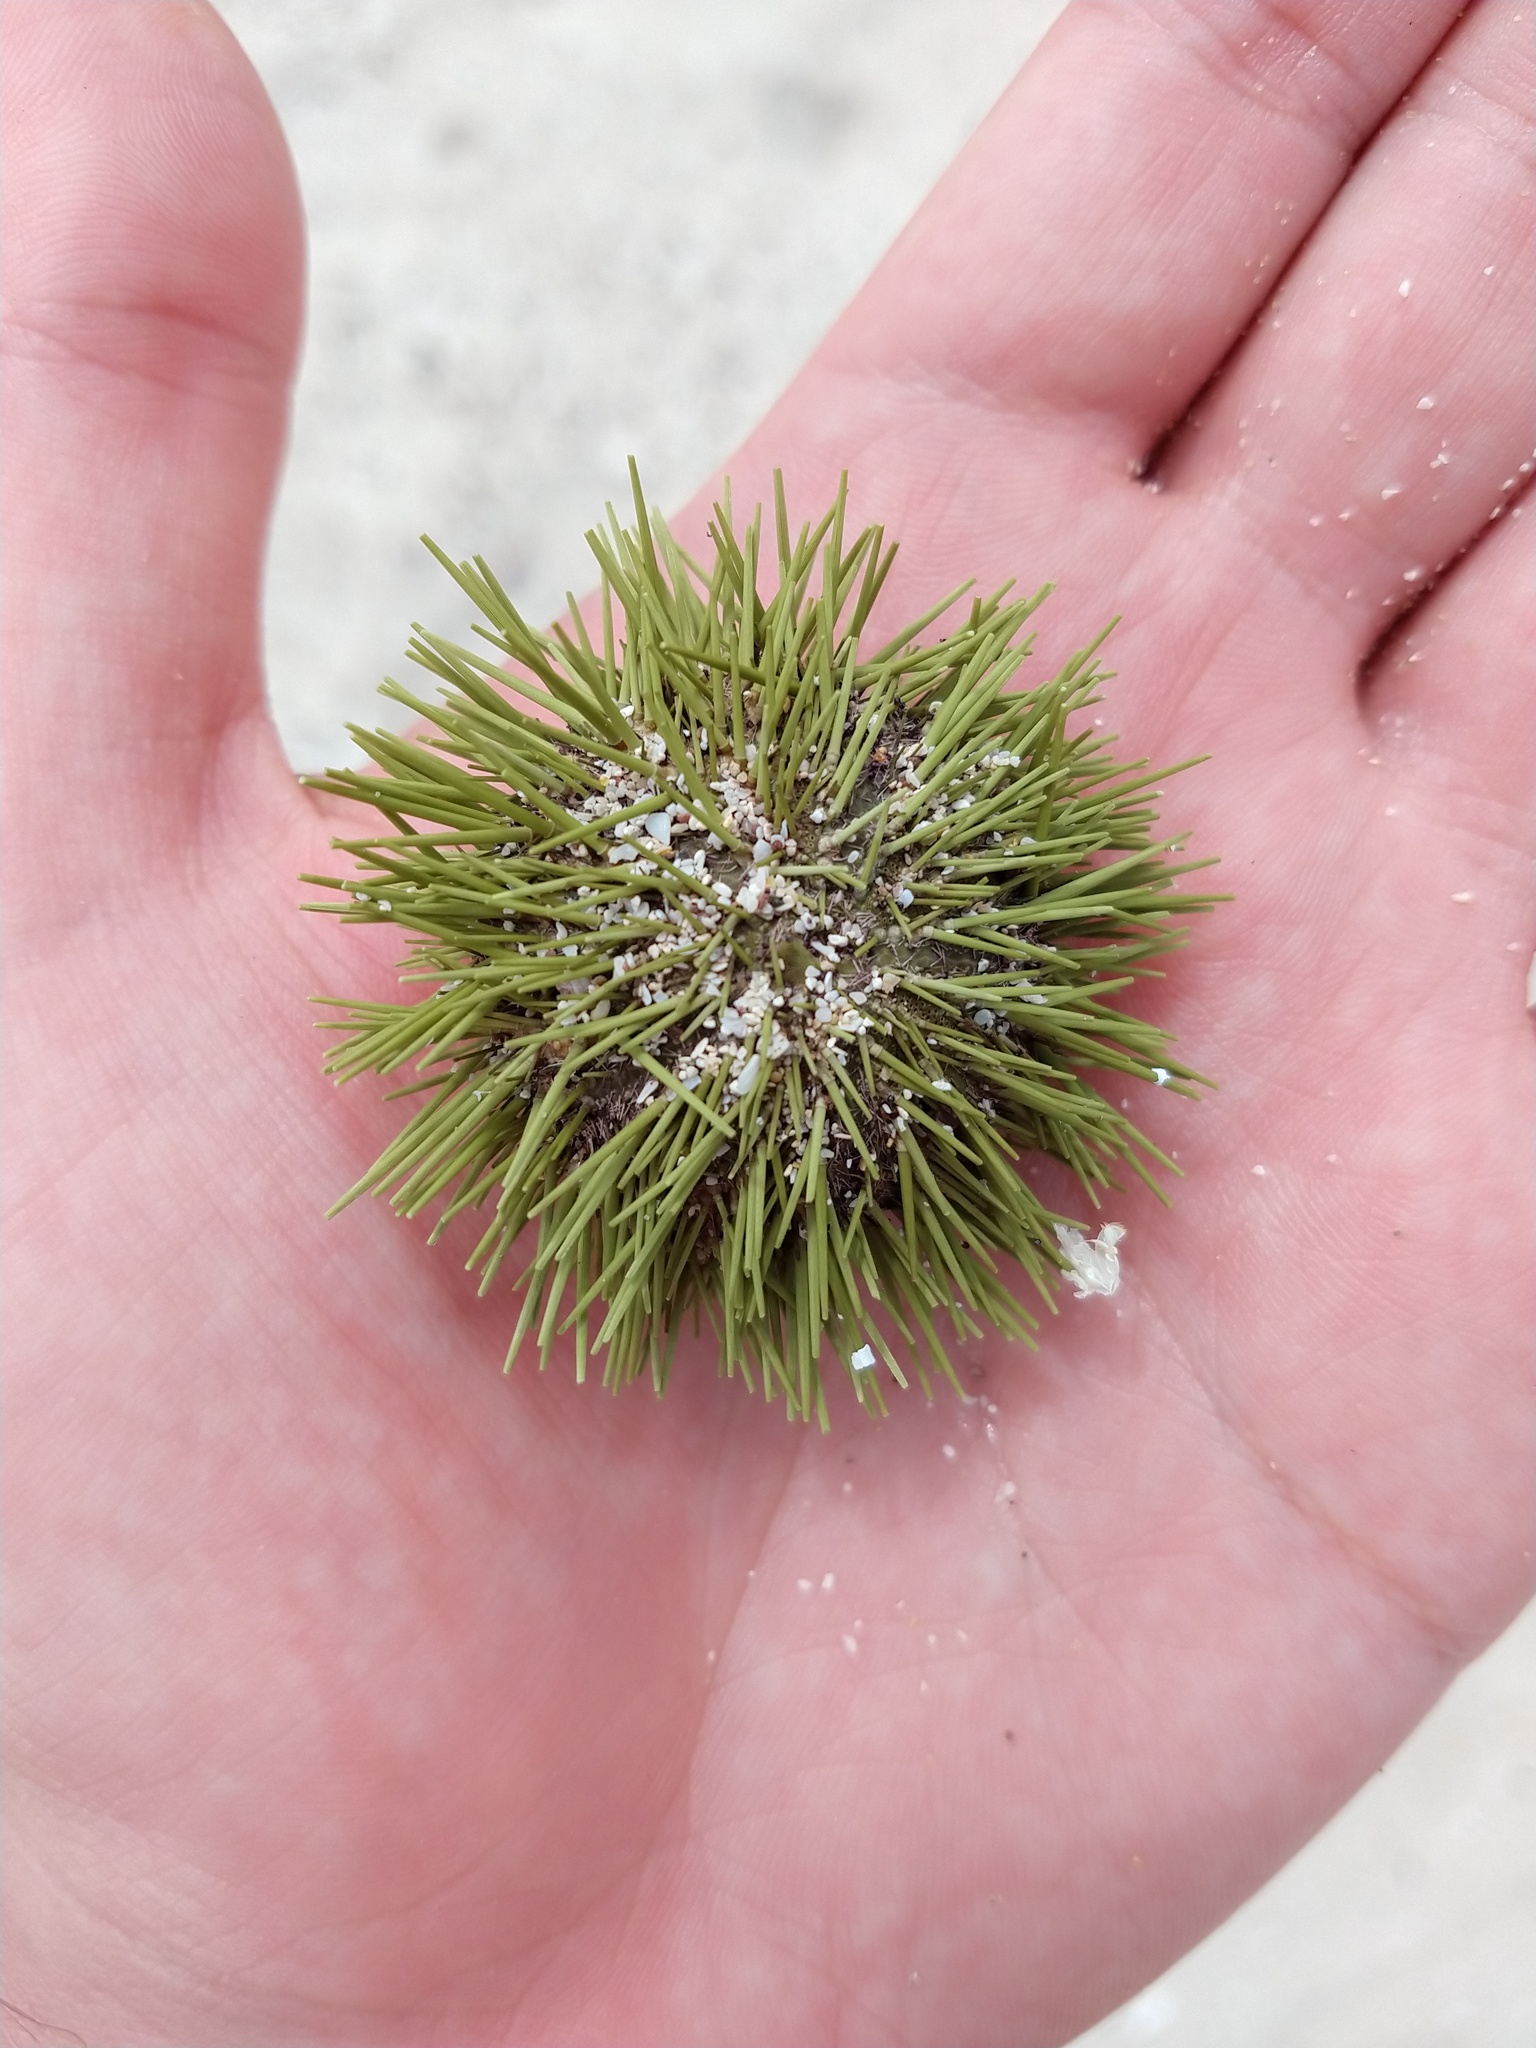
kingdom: Animalia
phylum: Echinodermata
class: Echinoidea
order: Camarodonta
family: Toxopneustidae
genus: Lytechinus
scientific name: Lytechinus semituberculatus
